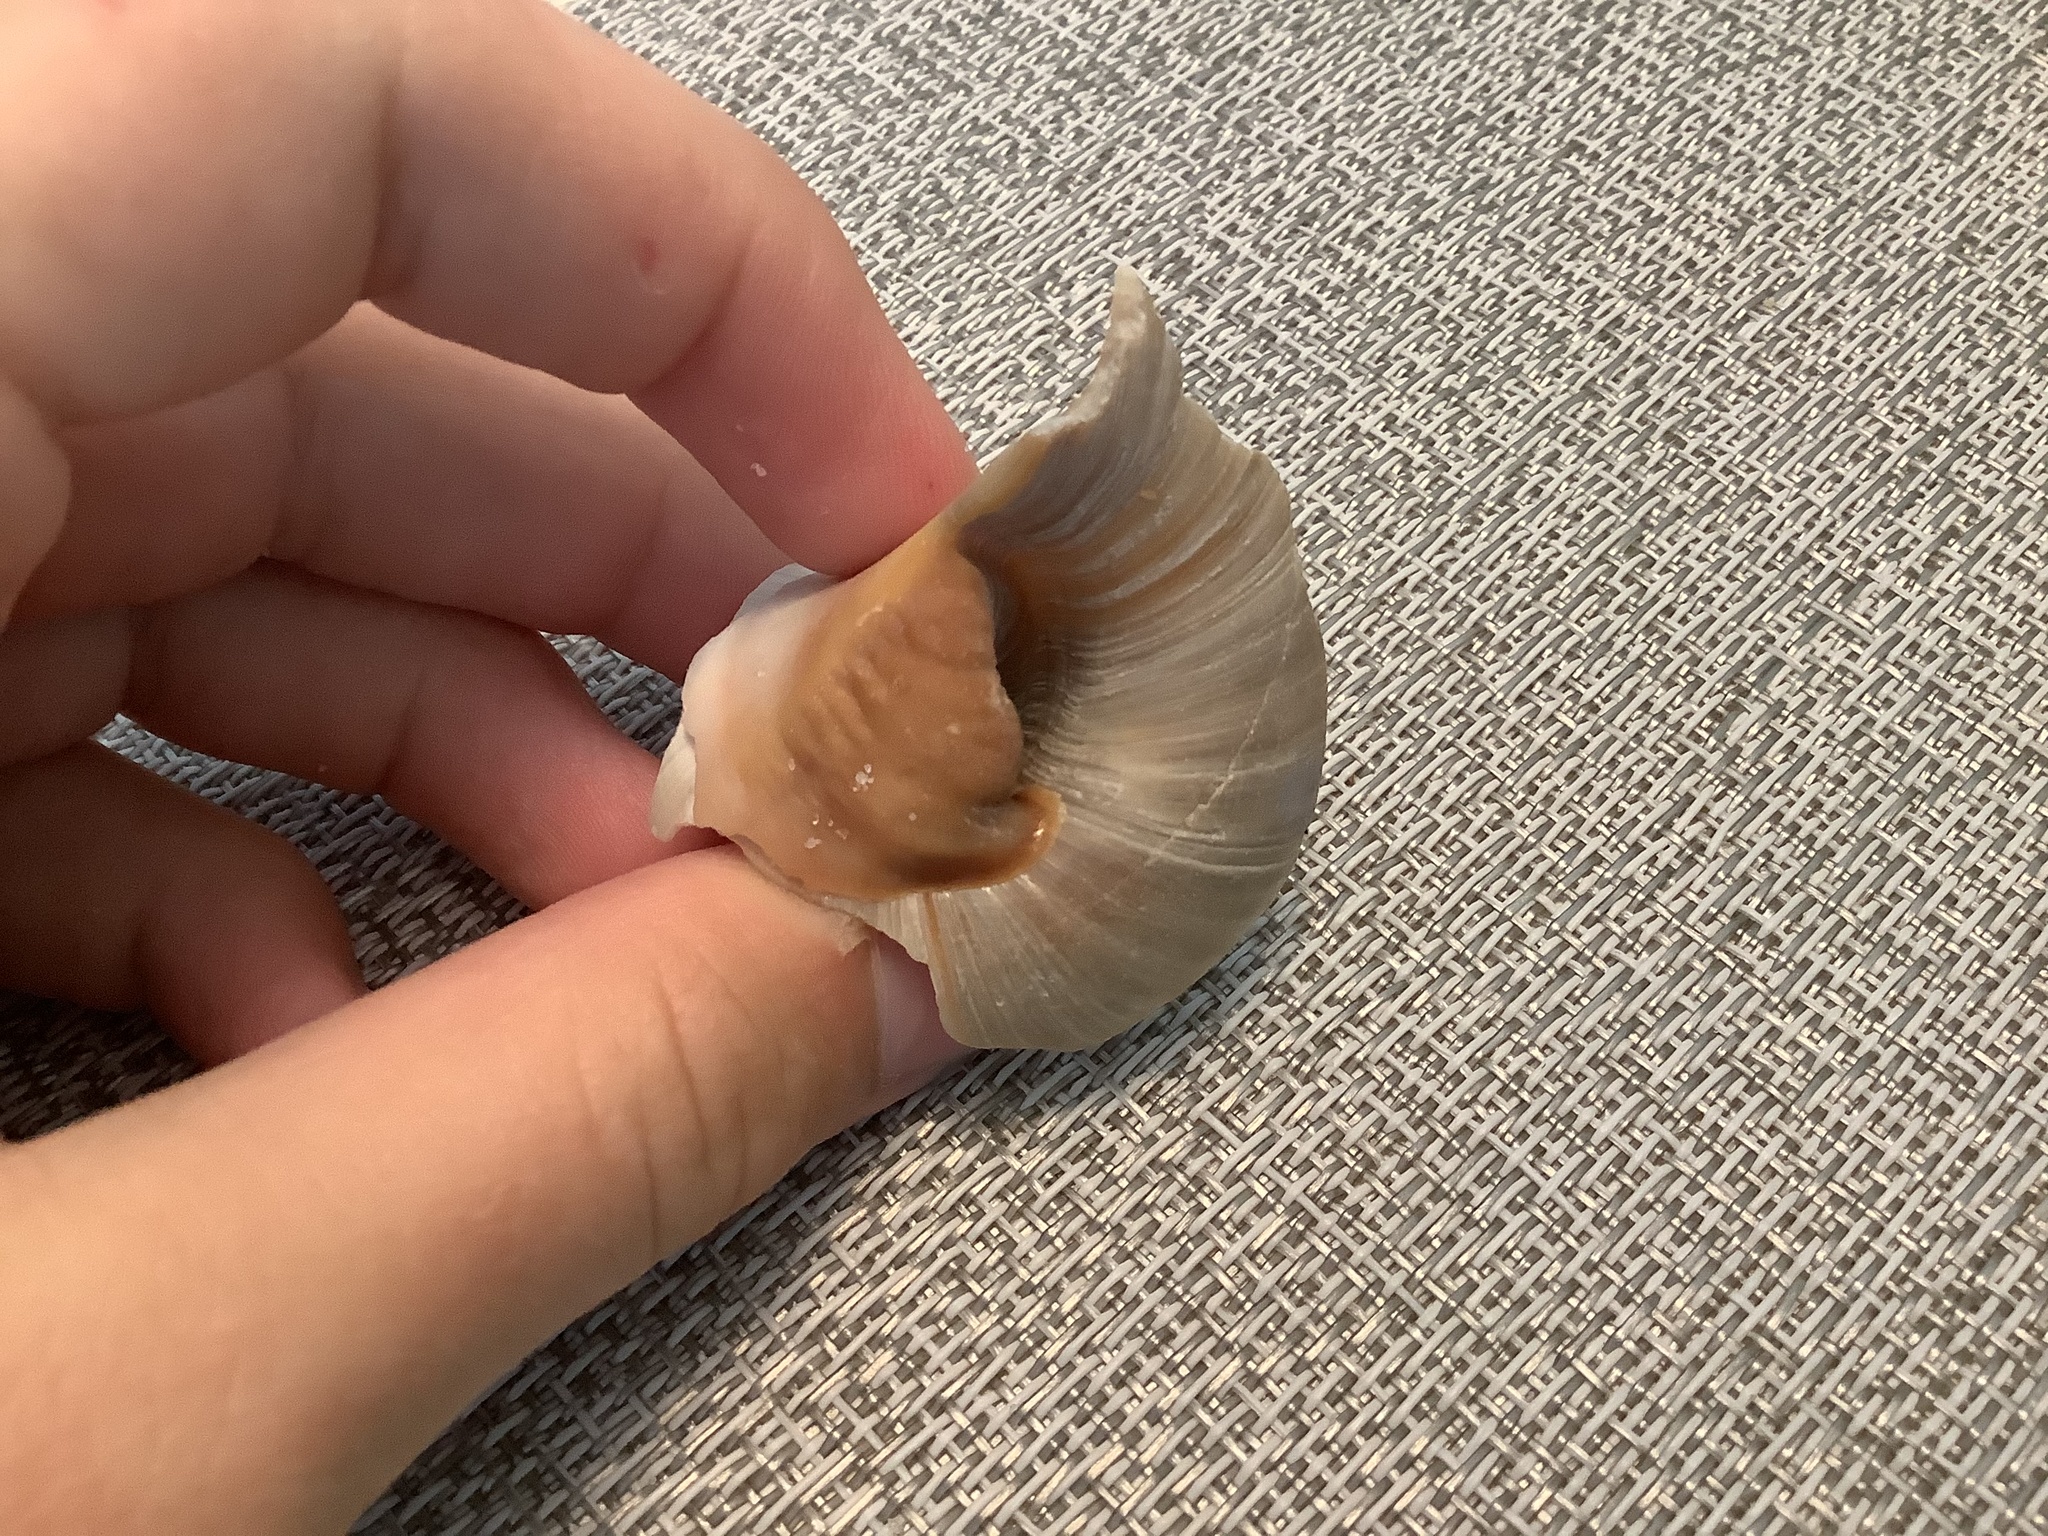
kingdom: Animalia
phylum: Mollusca
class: Gastropoda
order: Littorinimorpha
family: Naticidae
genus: Neverita
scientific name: Neverita delessertiana
